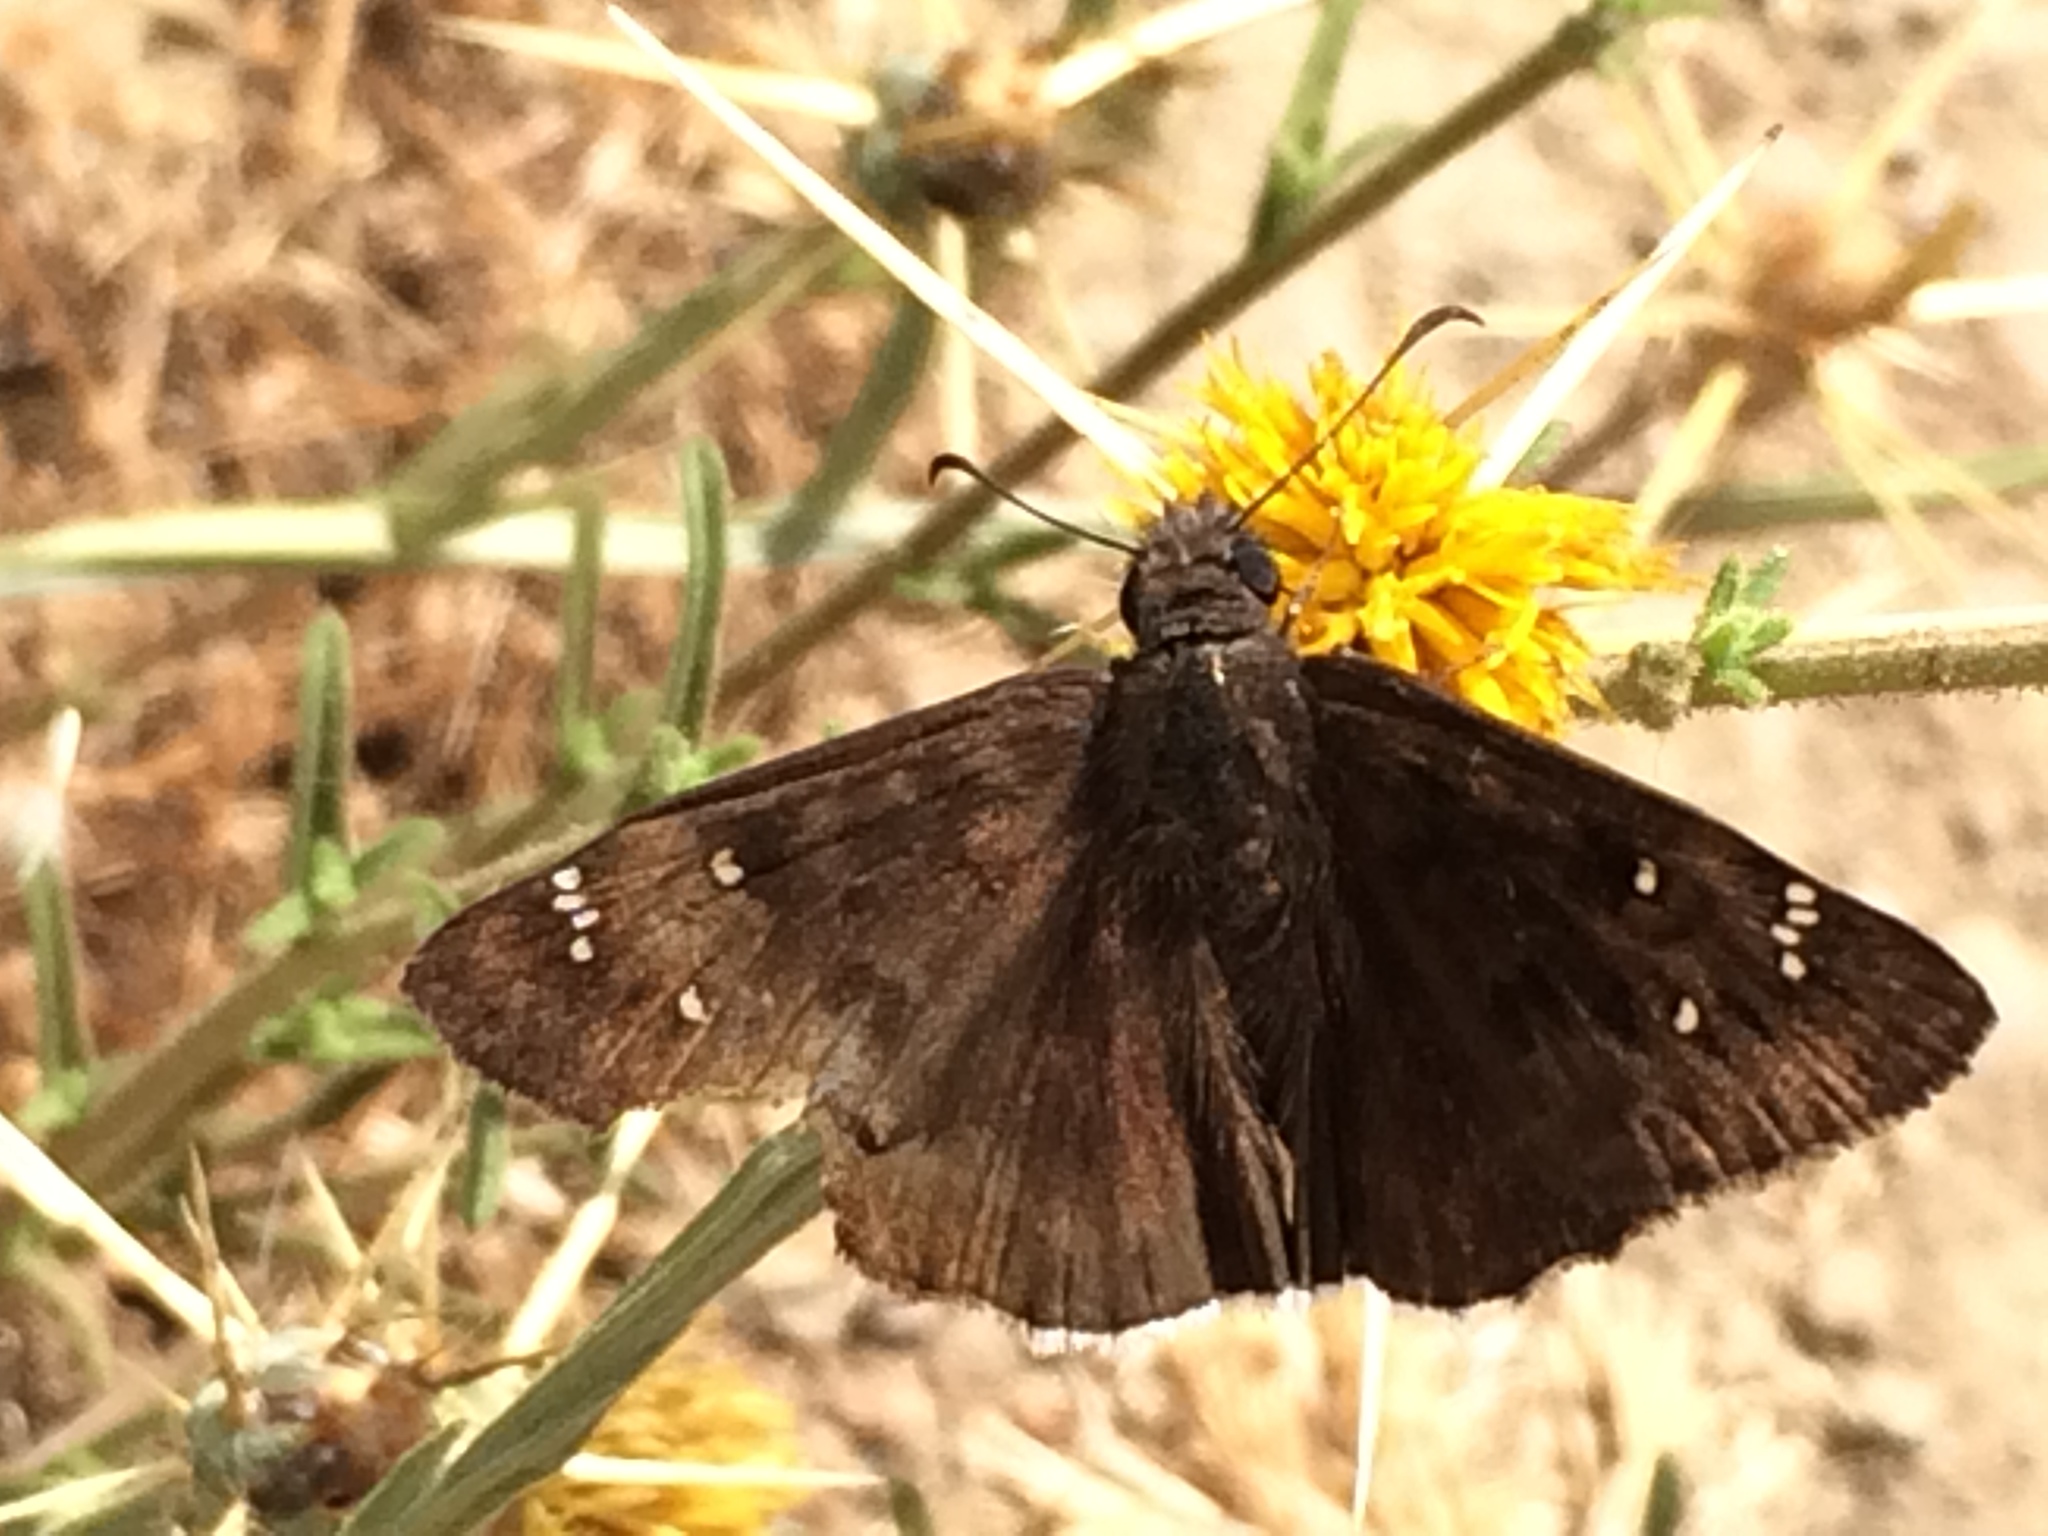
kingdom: Animalia
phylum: Arthropoda
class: Insecta
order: Lepidoptera
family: Hesperiidae
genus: Erynnis
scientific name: Erynnis tristis
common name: Mournful duskywing
